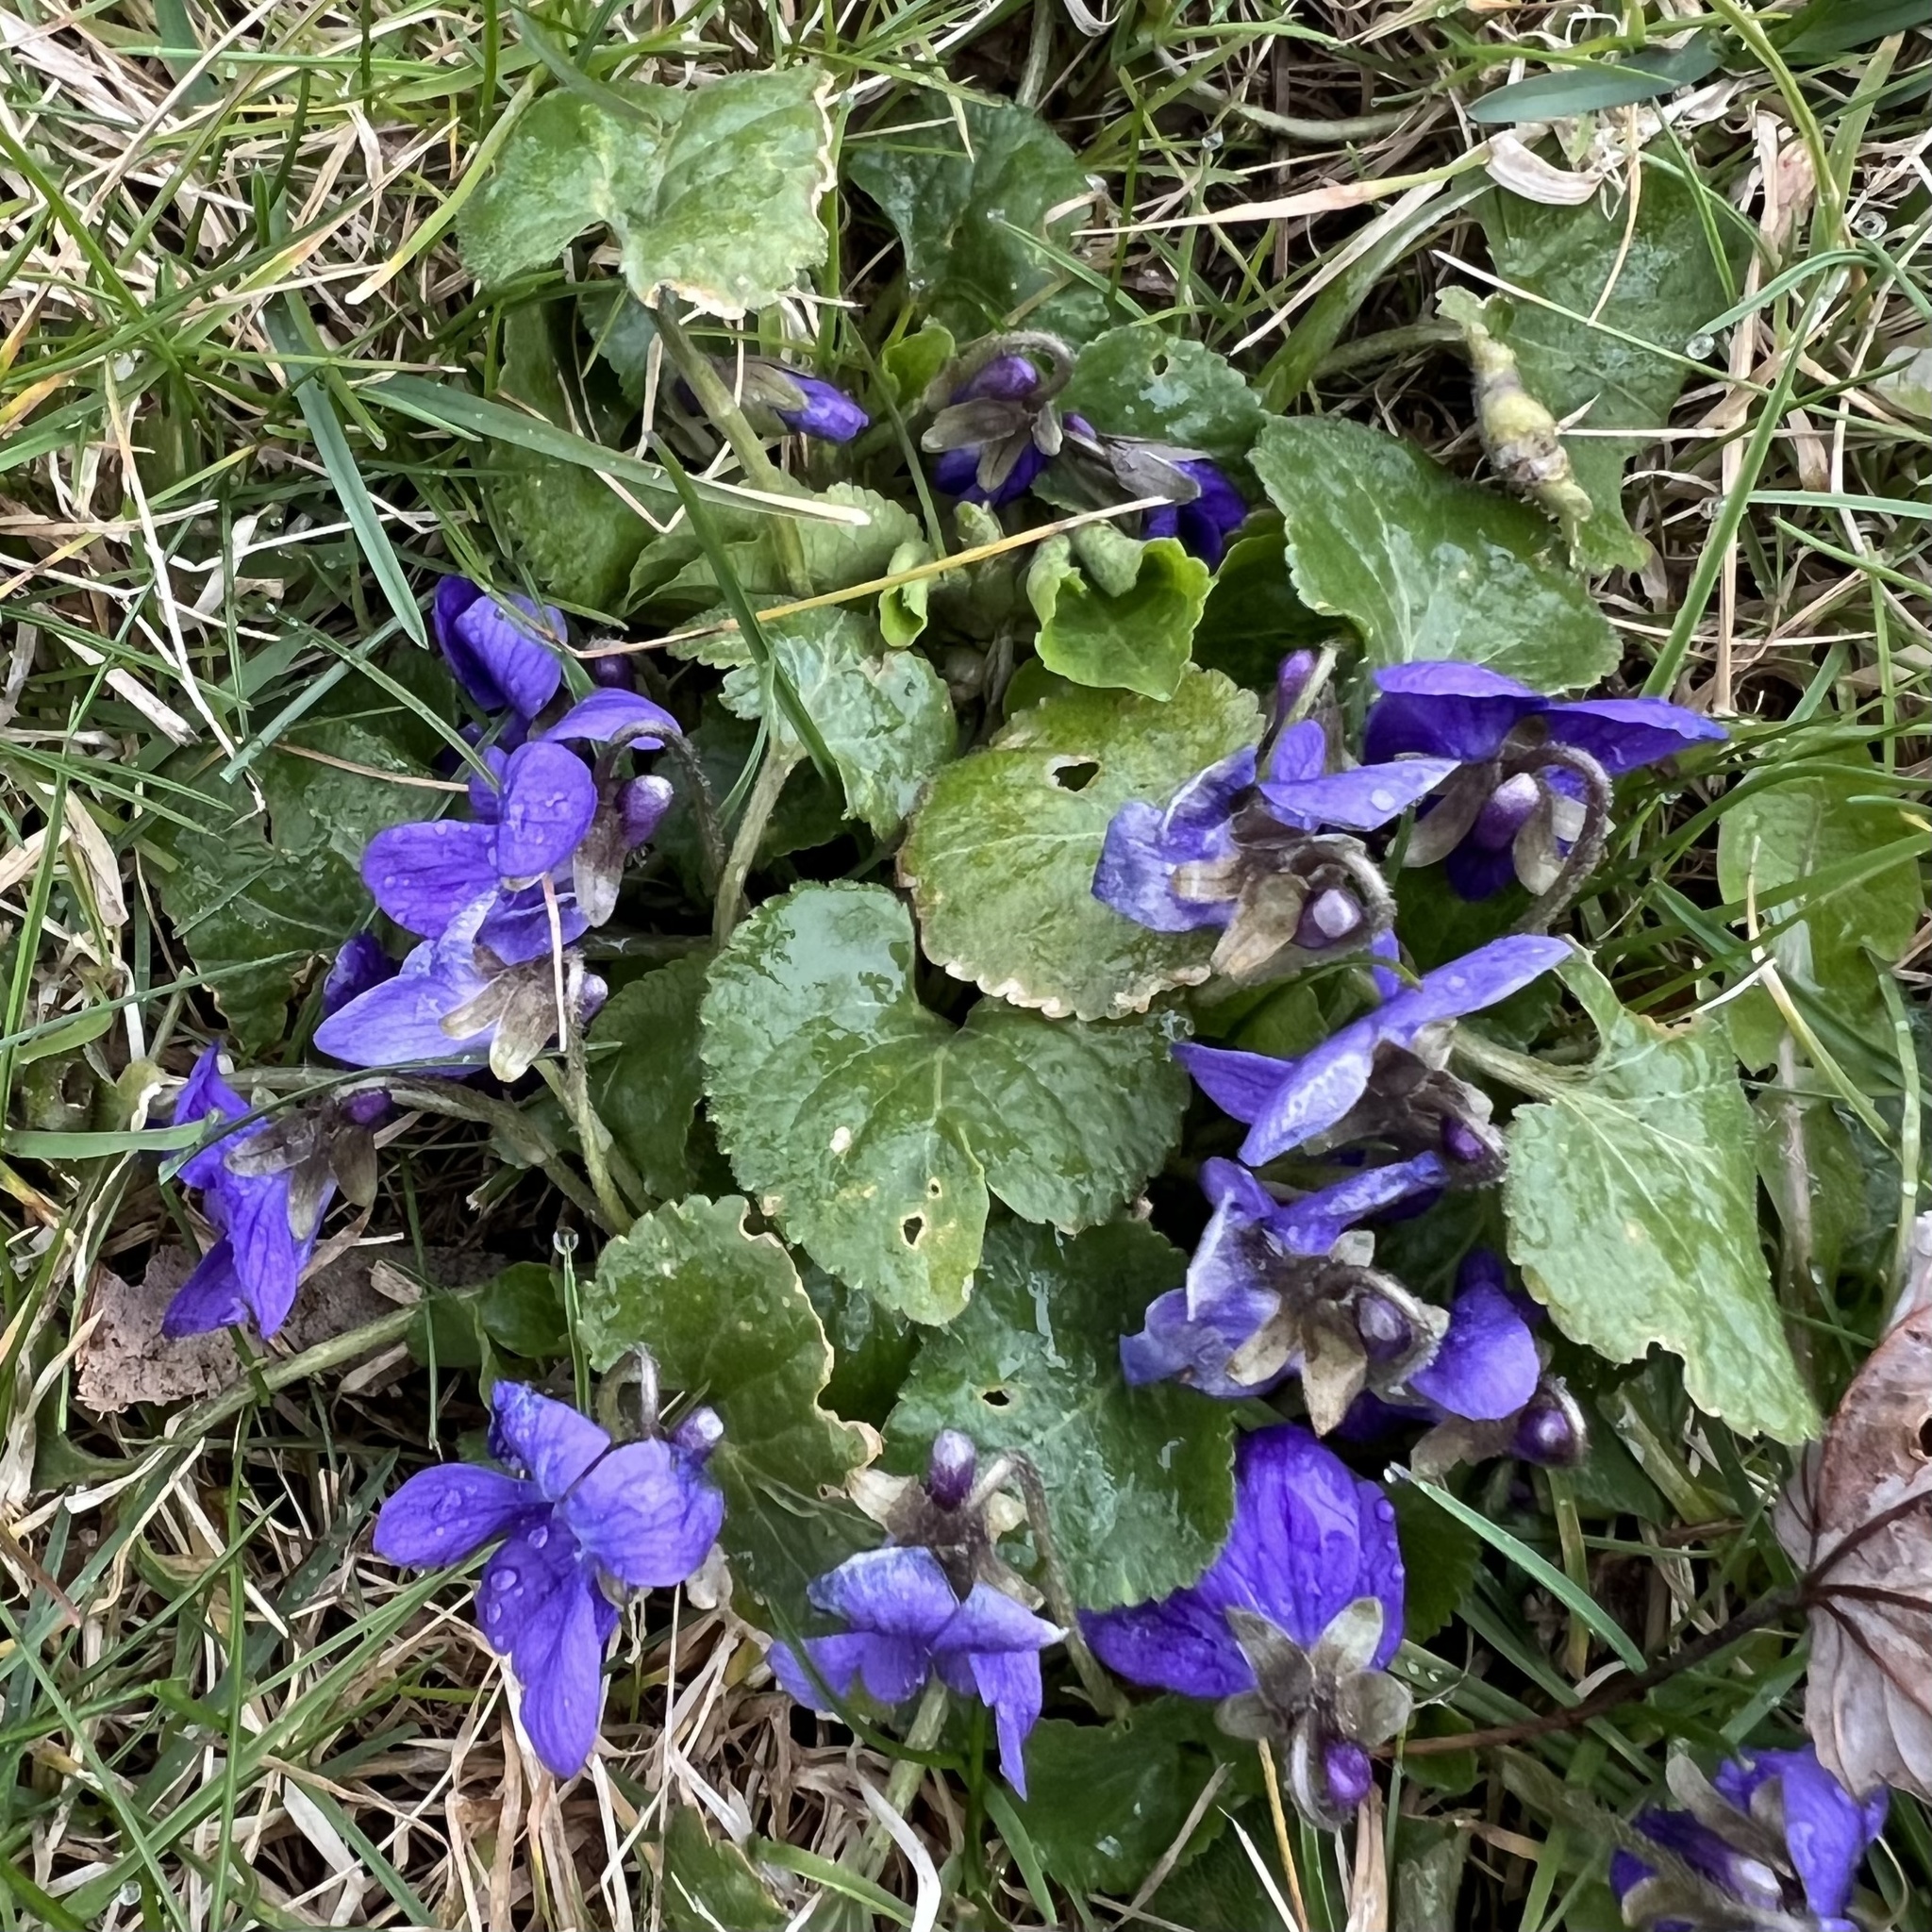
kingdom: Plantae
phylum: Tracheophyta
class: Magnoliopsida
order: Malpighiales
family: Violaceae
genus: Viola
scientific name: Viola odorata
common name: Sweet violet
